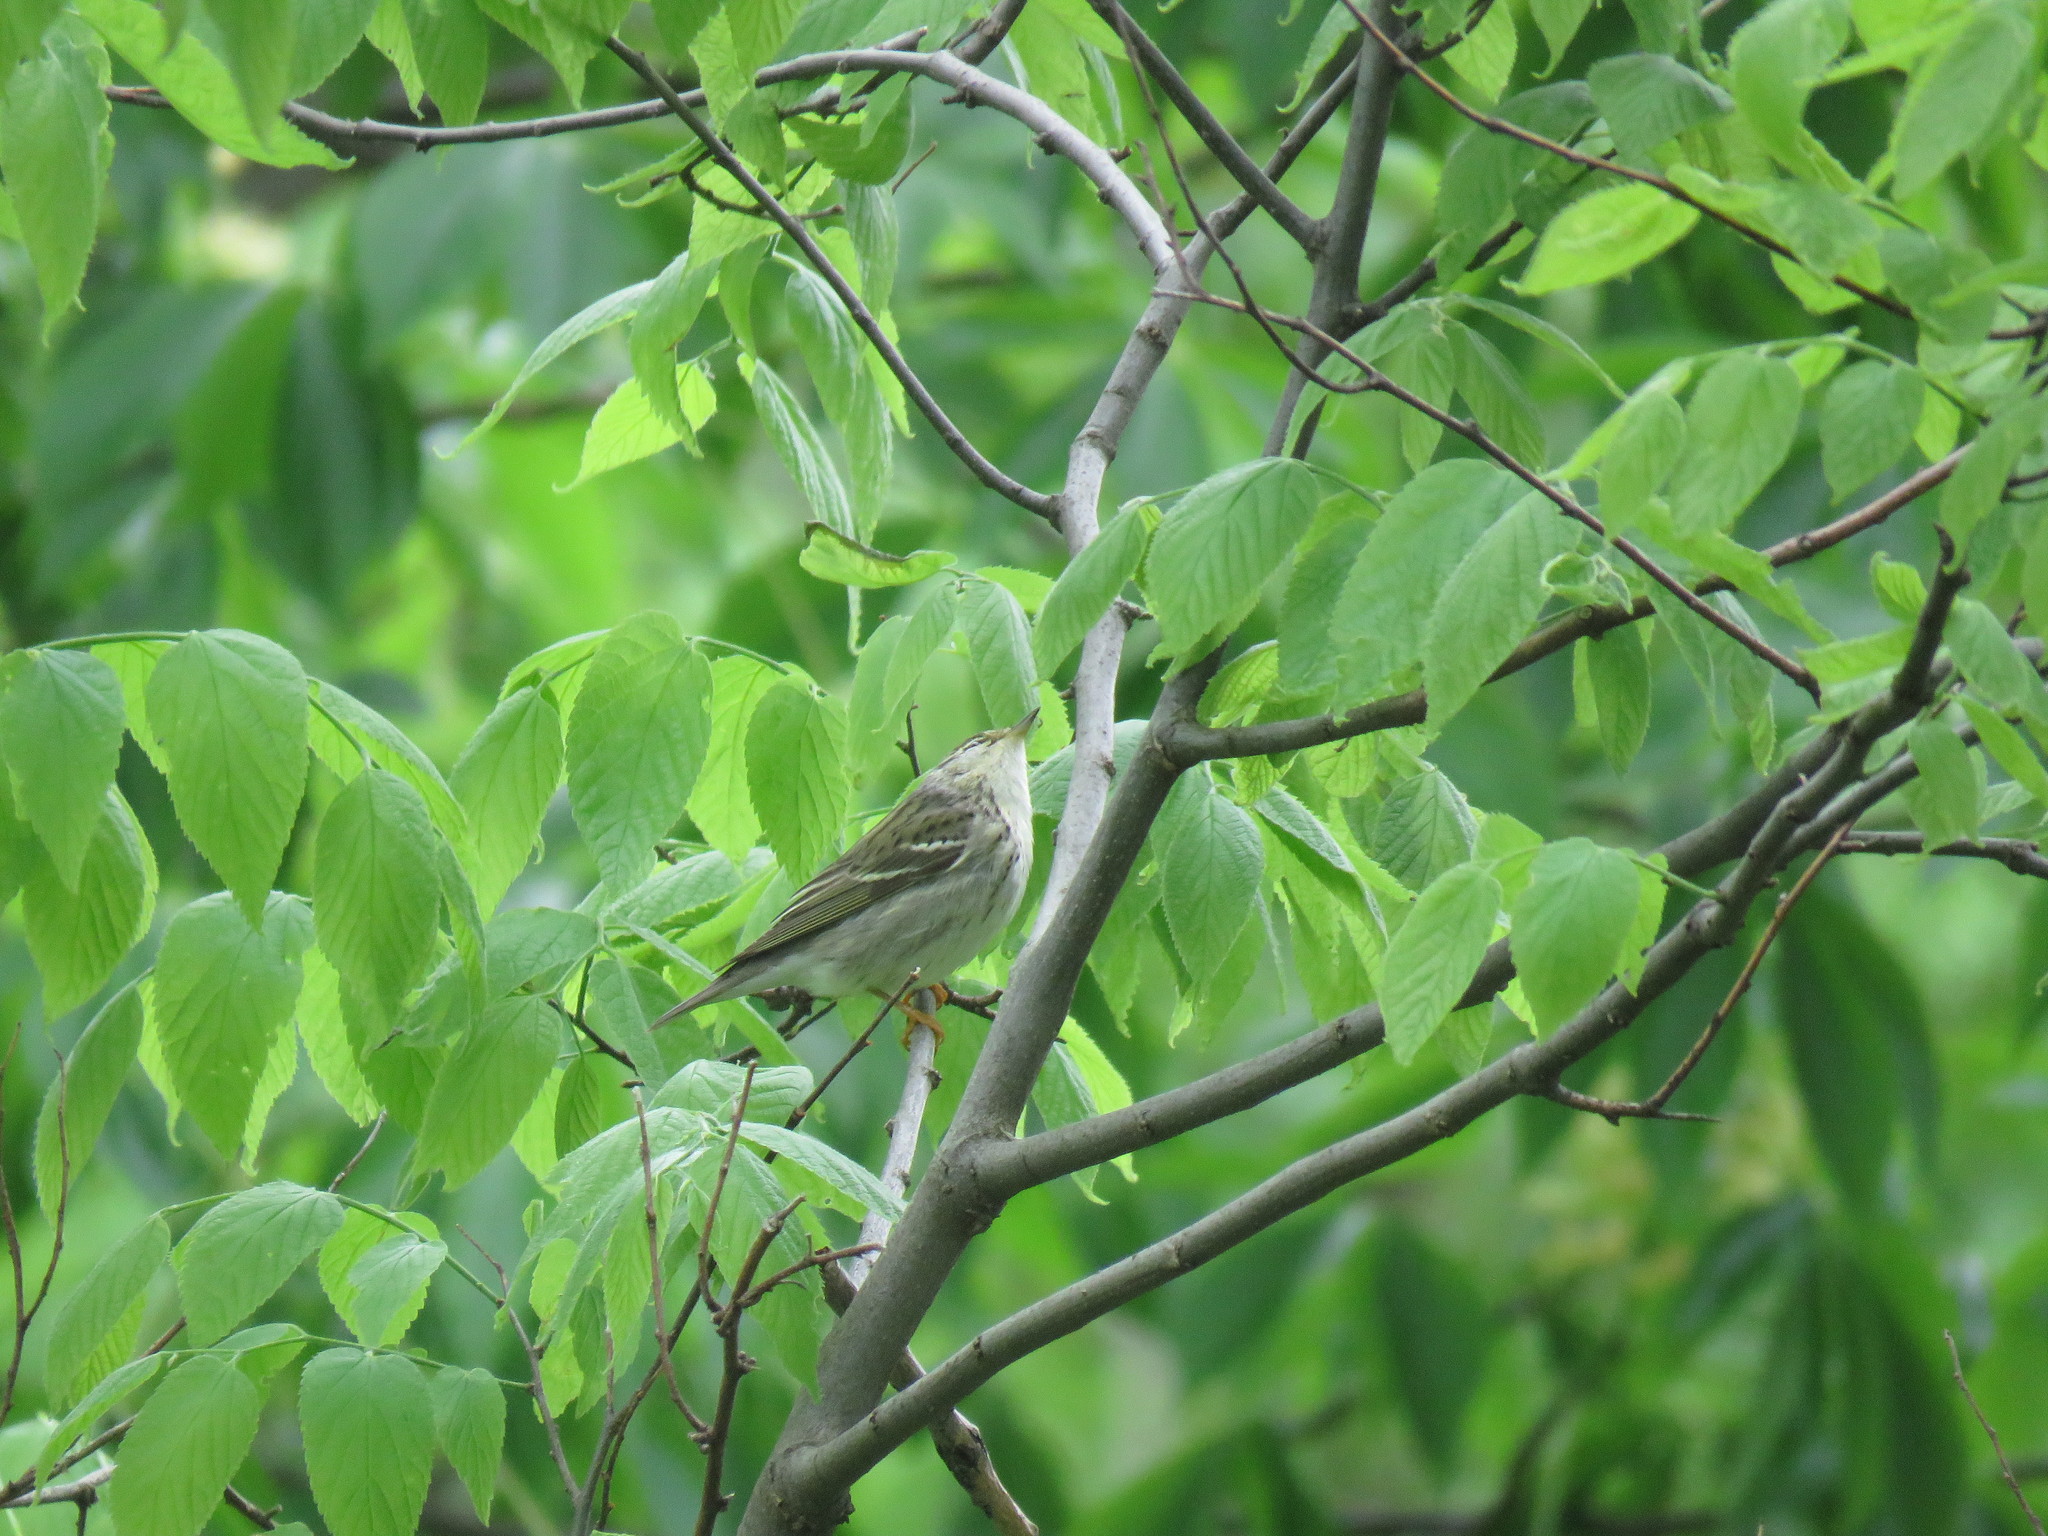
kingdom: Animalia
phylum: Chordata
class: Aves
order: Passeriformes
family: Parulidae
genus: Setophaga
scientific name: Setophaga striata
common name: Blackpoll warbler
